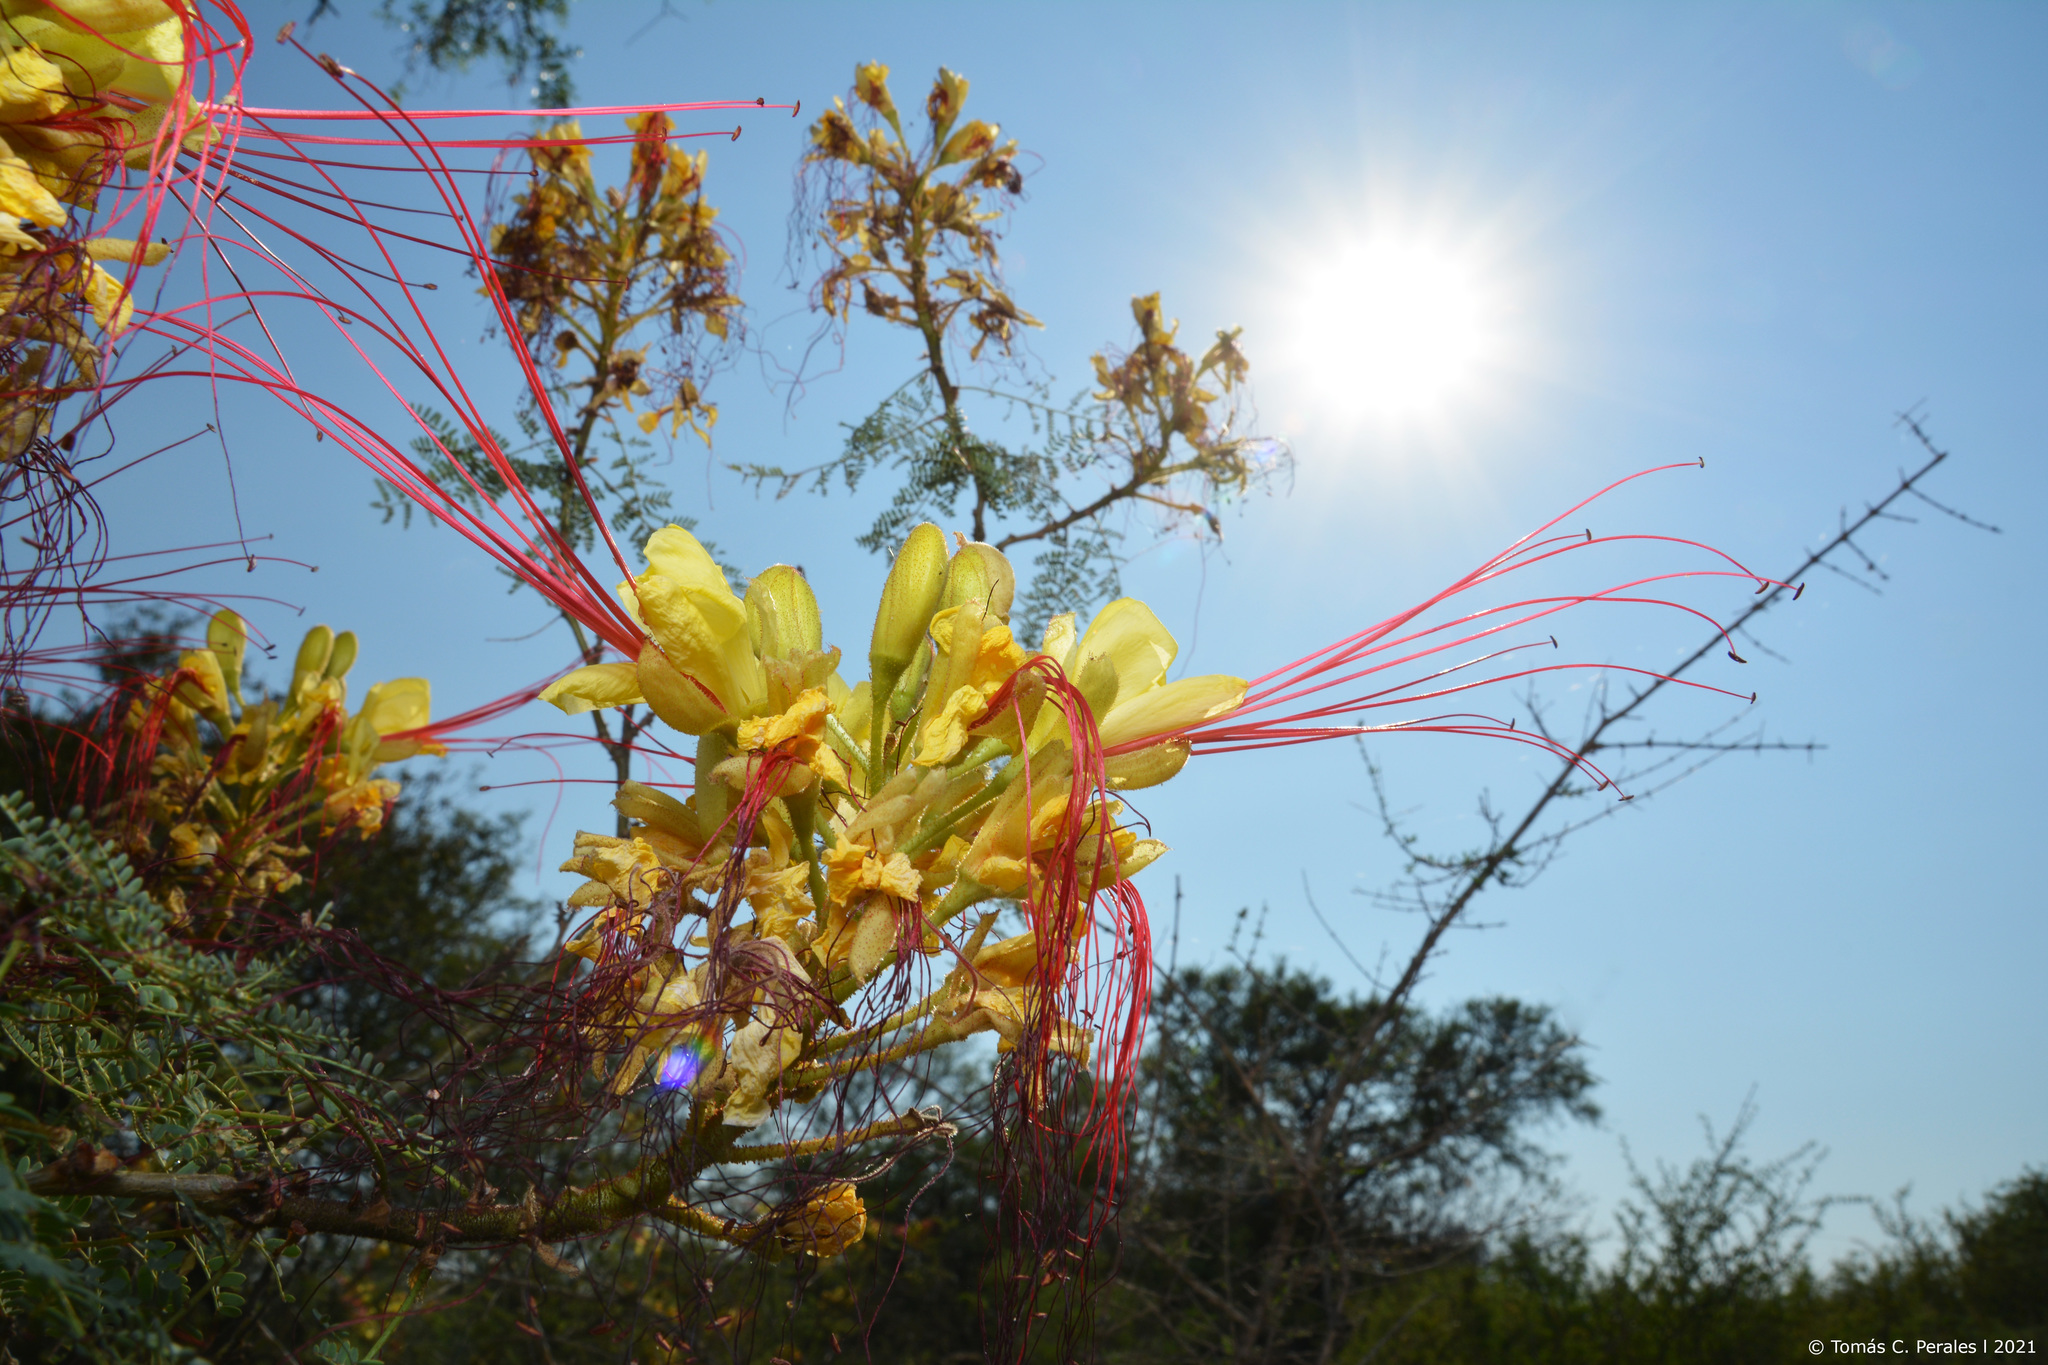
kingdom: Plantae
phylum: Tracheophyta
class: Magnoliopsida
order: Fabales
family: Fabaceae
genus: Erythrostemon
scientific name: Erythrostemon gilliesii
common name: Bird-of-paradise shrub
